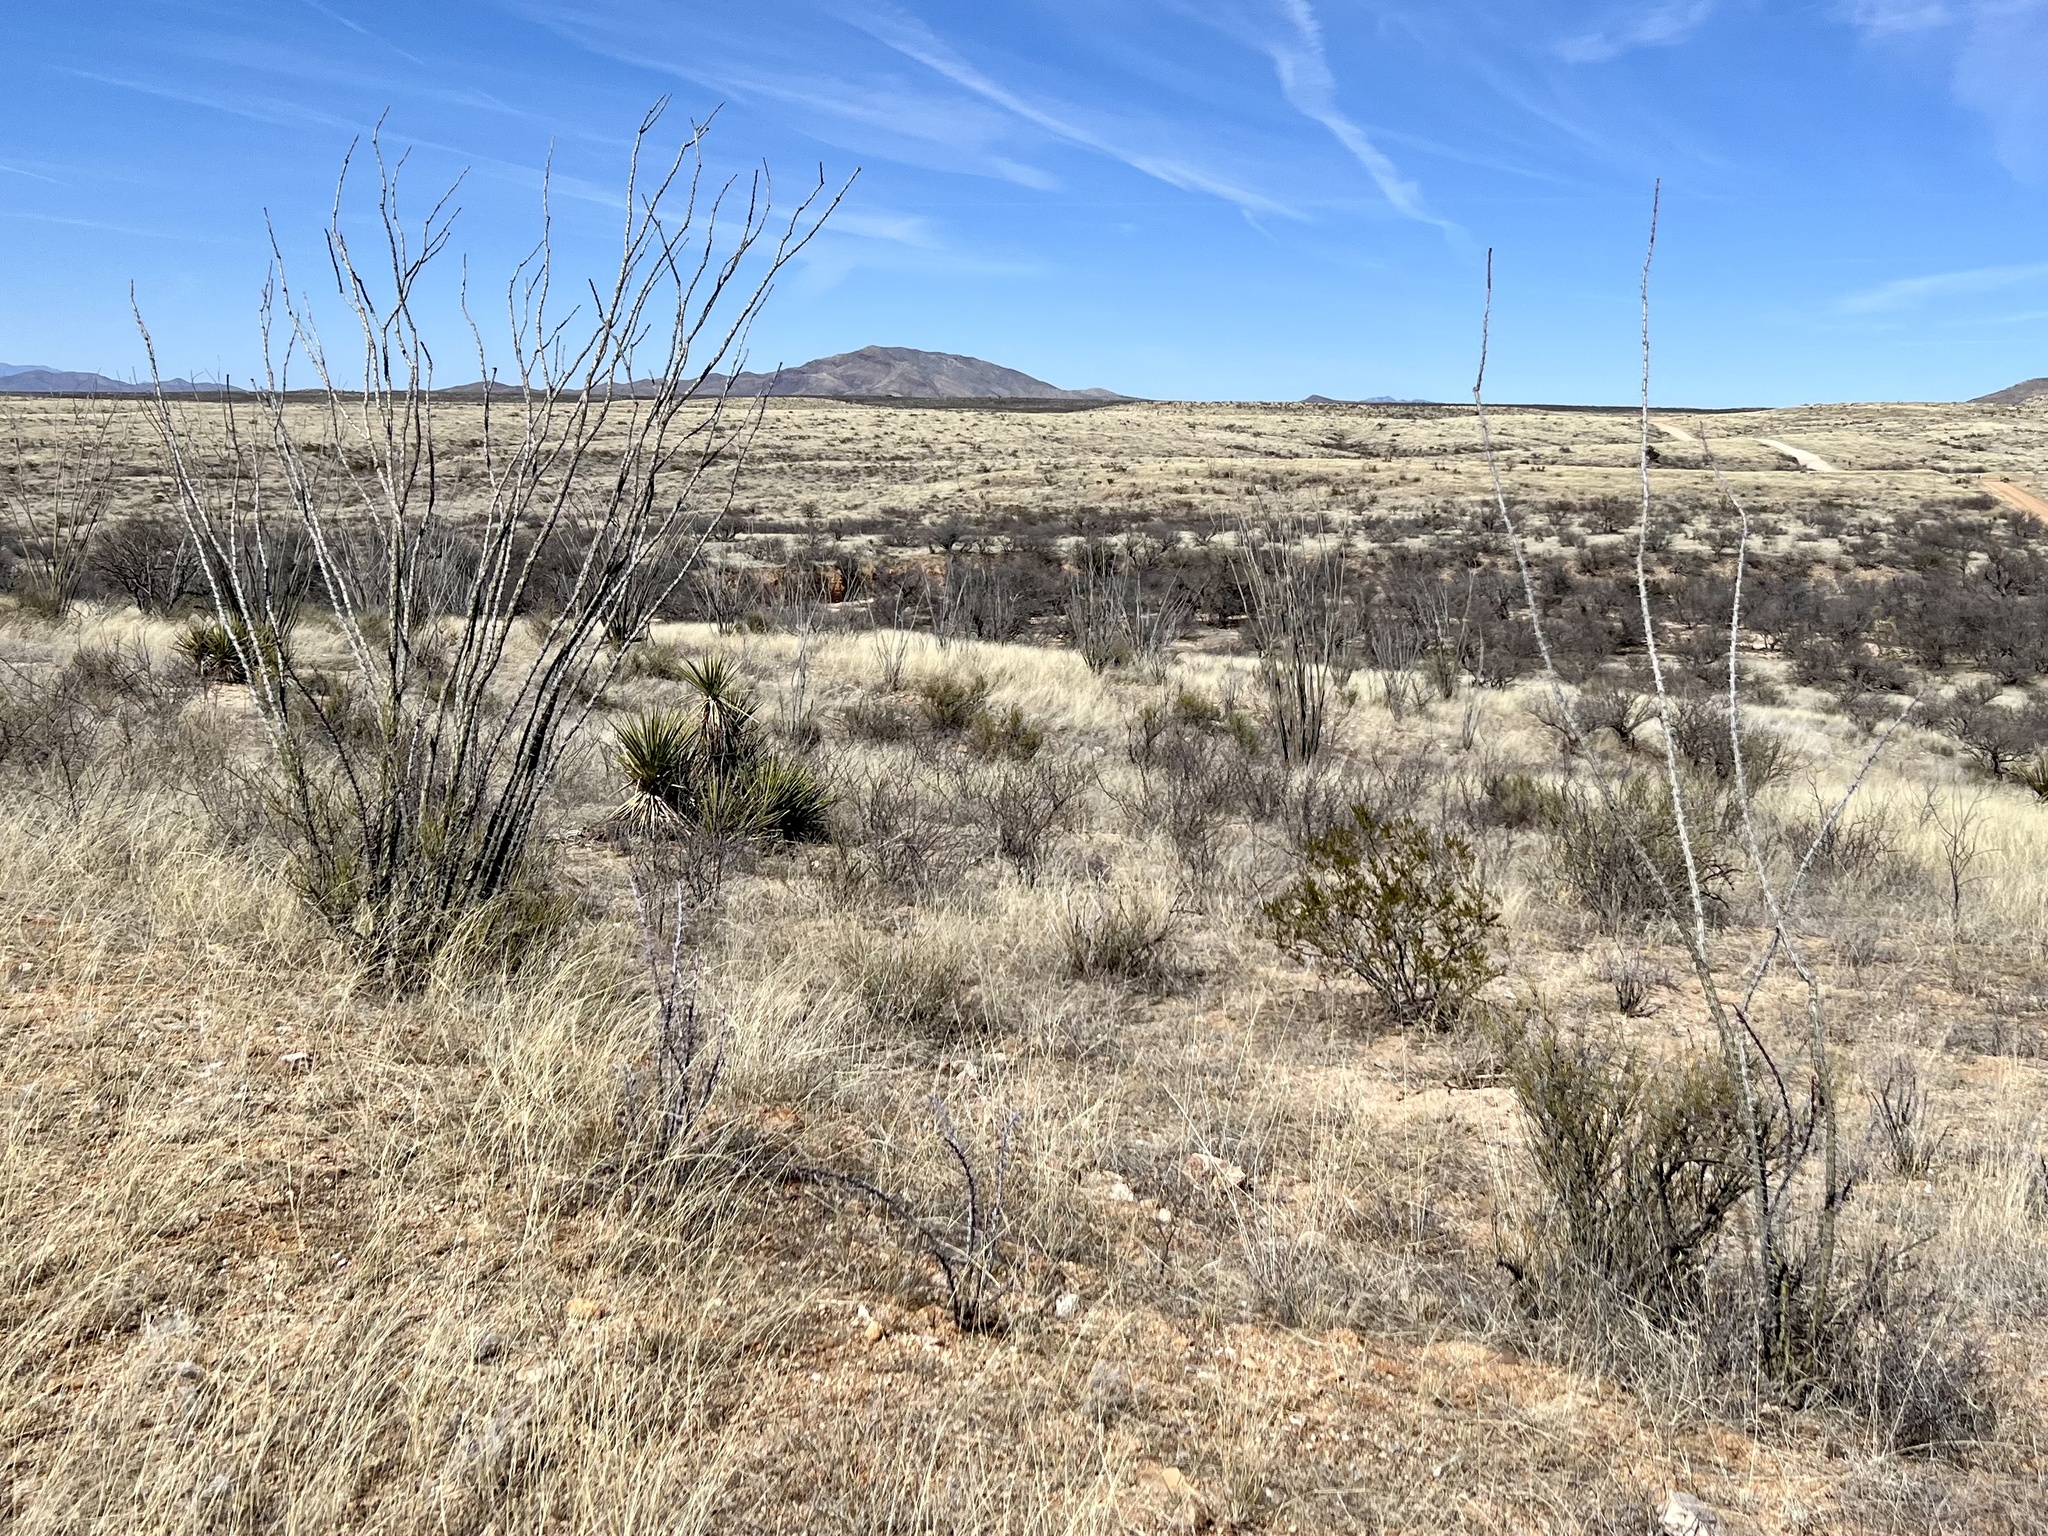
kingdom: Plantae
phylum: Tracheophyta
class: Magnoliopsida
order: Ericales
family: Fouquieriaceae
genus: Fouquieria
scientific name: Fouquieria splendens
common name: Vine-cactus
